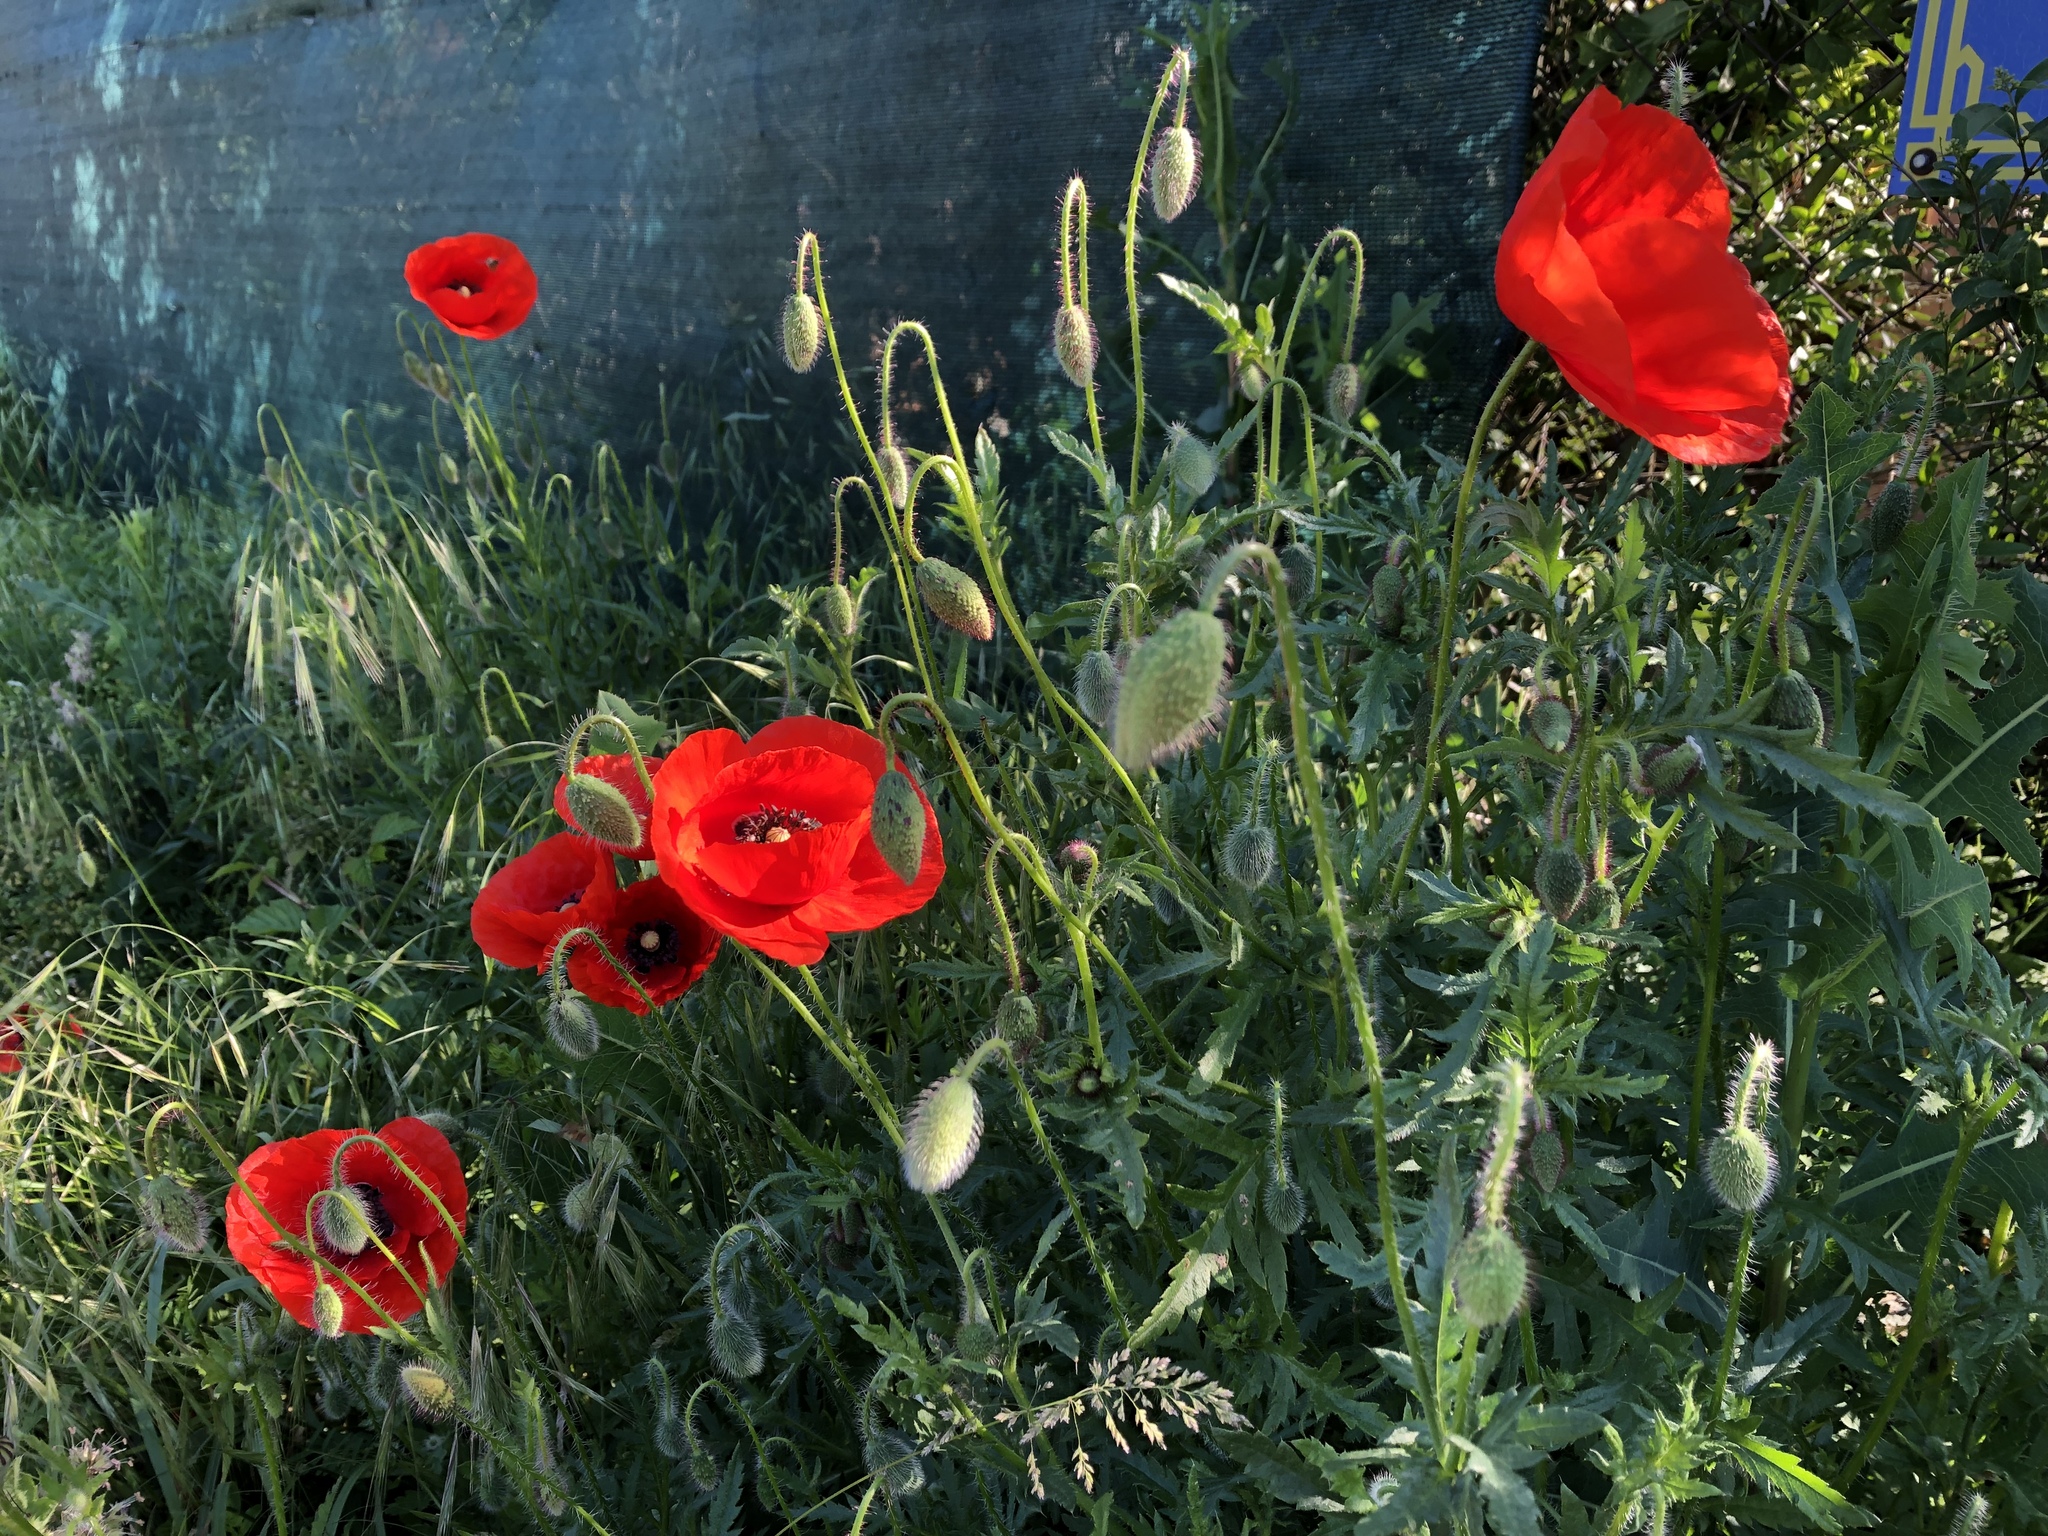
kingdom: Plantae
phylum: Tracheophyta
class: Magnoliopsida
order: Ranunculales
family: Papaveraceae
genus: Papaver
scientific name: Papaver rhoeas
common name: Corn poppy
